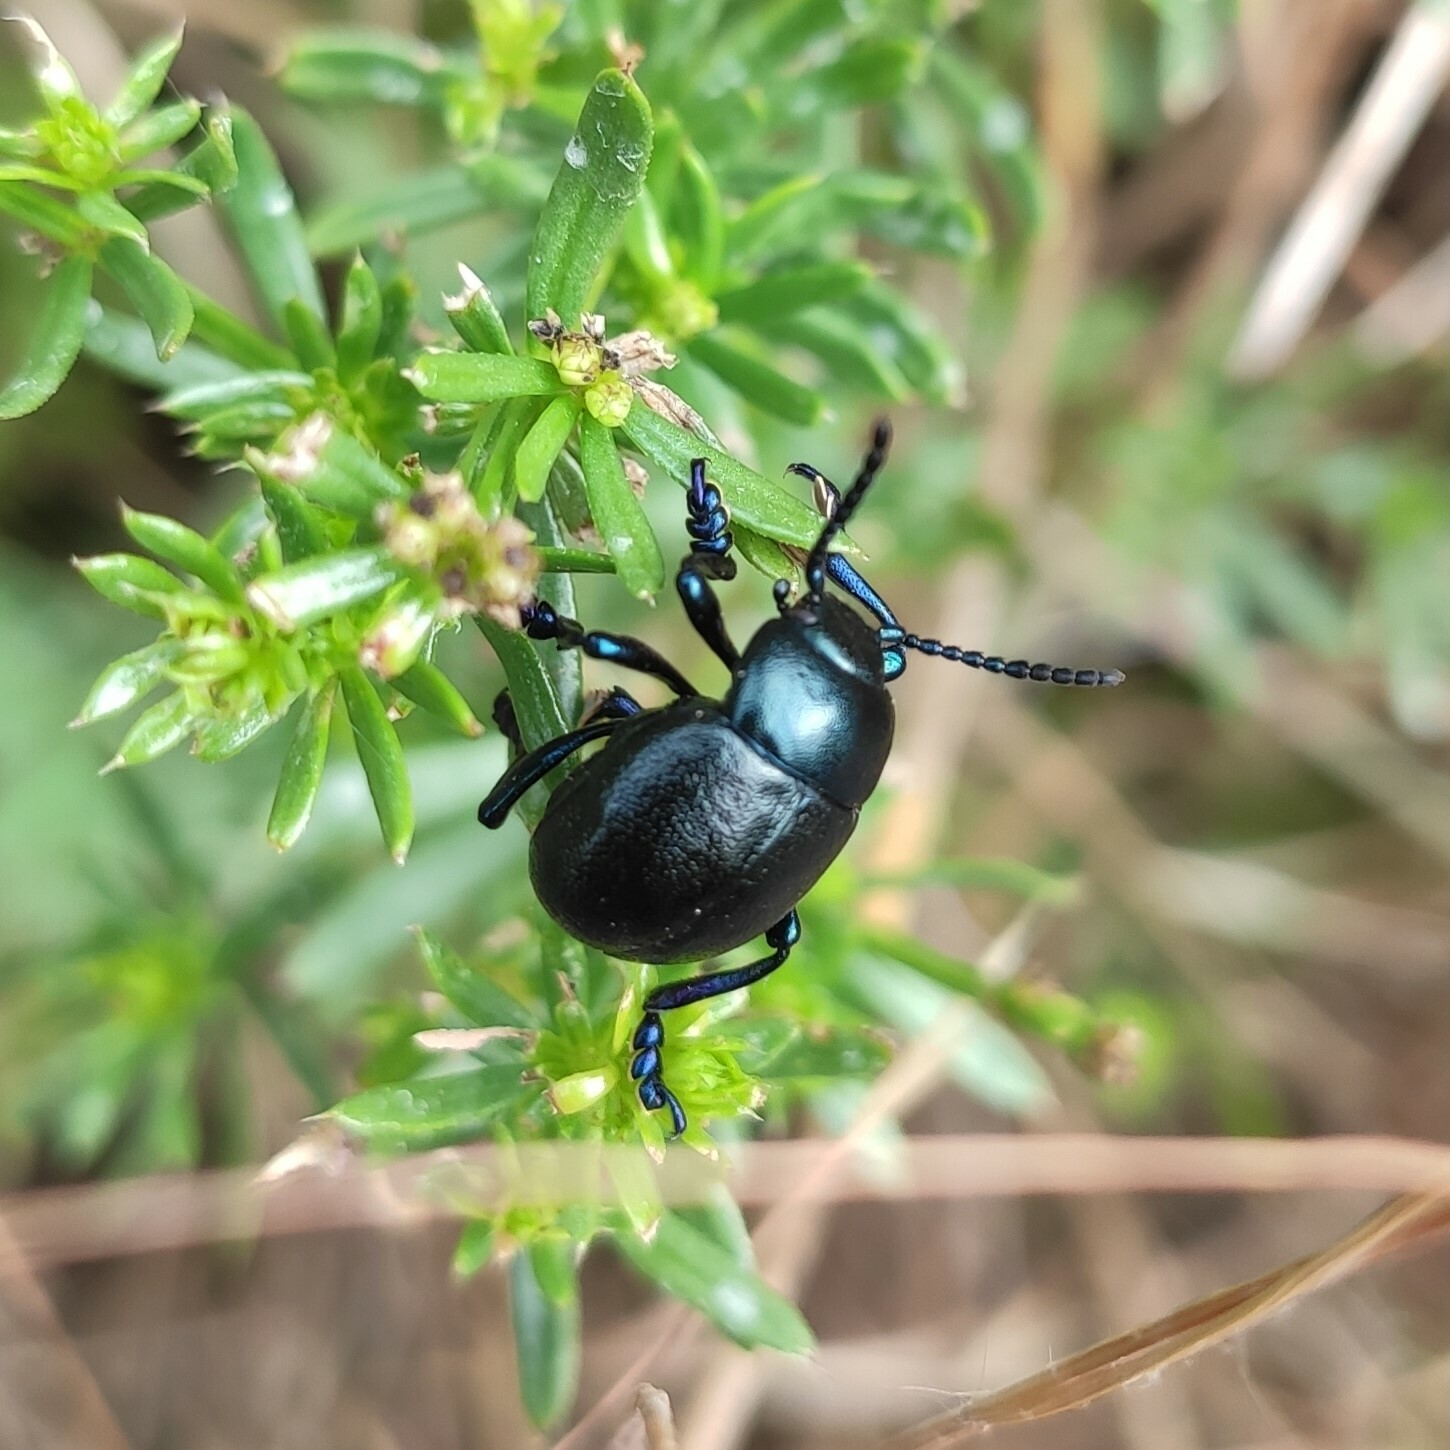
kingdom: Animalia
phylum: Arthropoda
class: Insecta
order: Coleoptera
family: Chrysomelidae
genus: Timarcha
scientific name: Timarcha goettingensis
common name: Small bloody-nosed beetle
